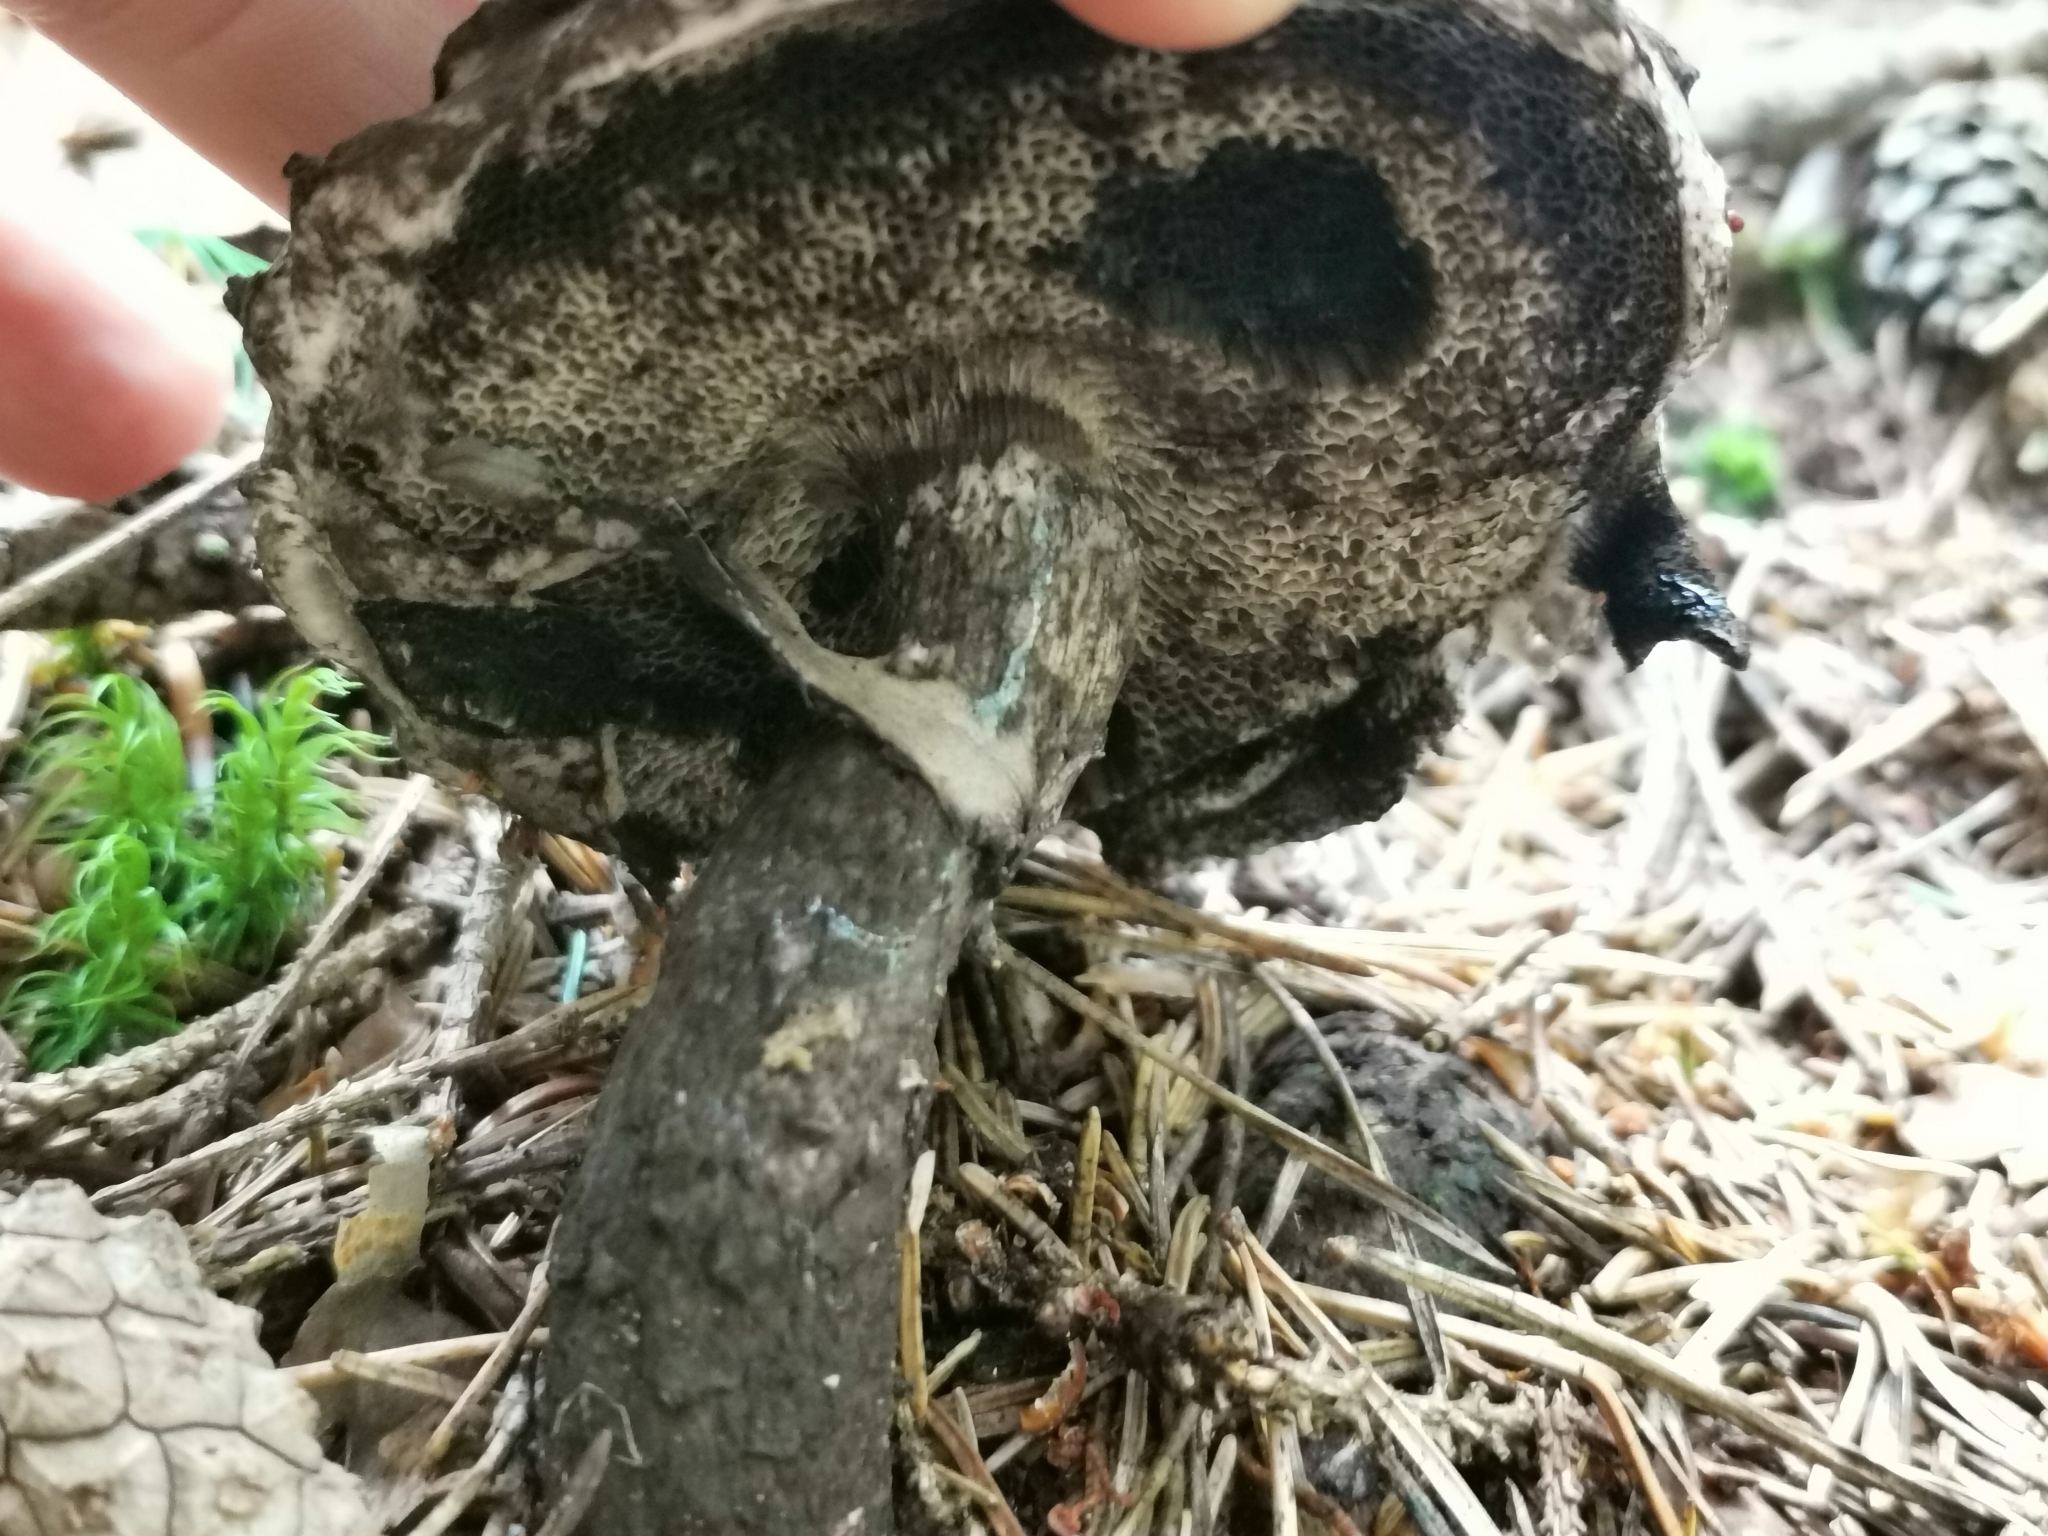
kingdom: Fungi
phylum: Basidiomycota
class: Agaricomycetes
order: Boletales
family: Boletaceae
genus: Strobilomyces
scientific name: Strobilomyces strobilaceus
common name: Old man of the woods
